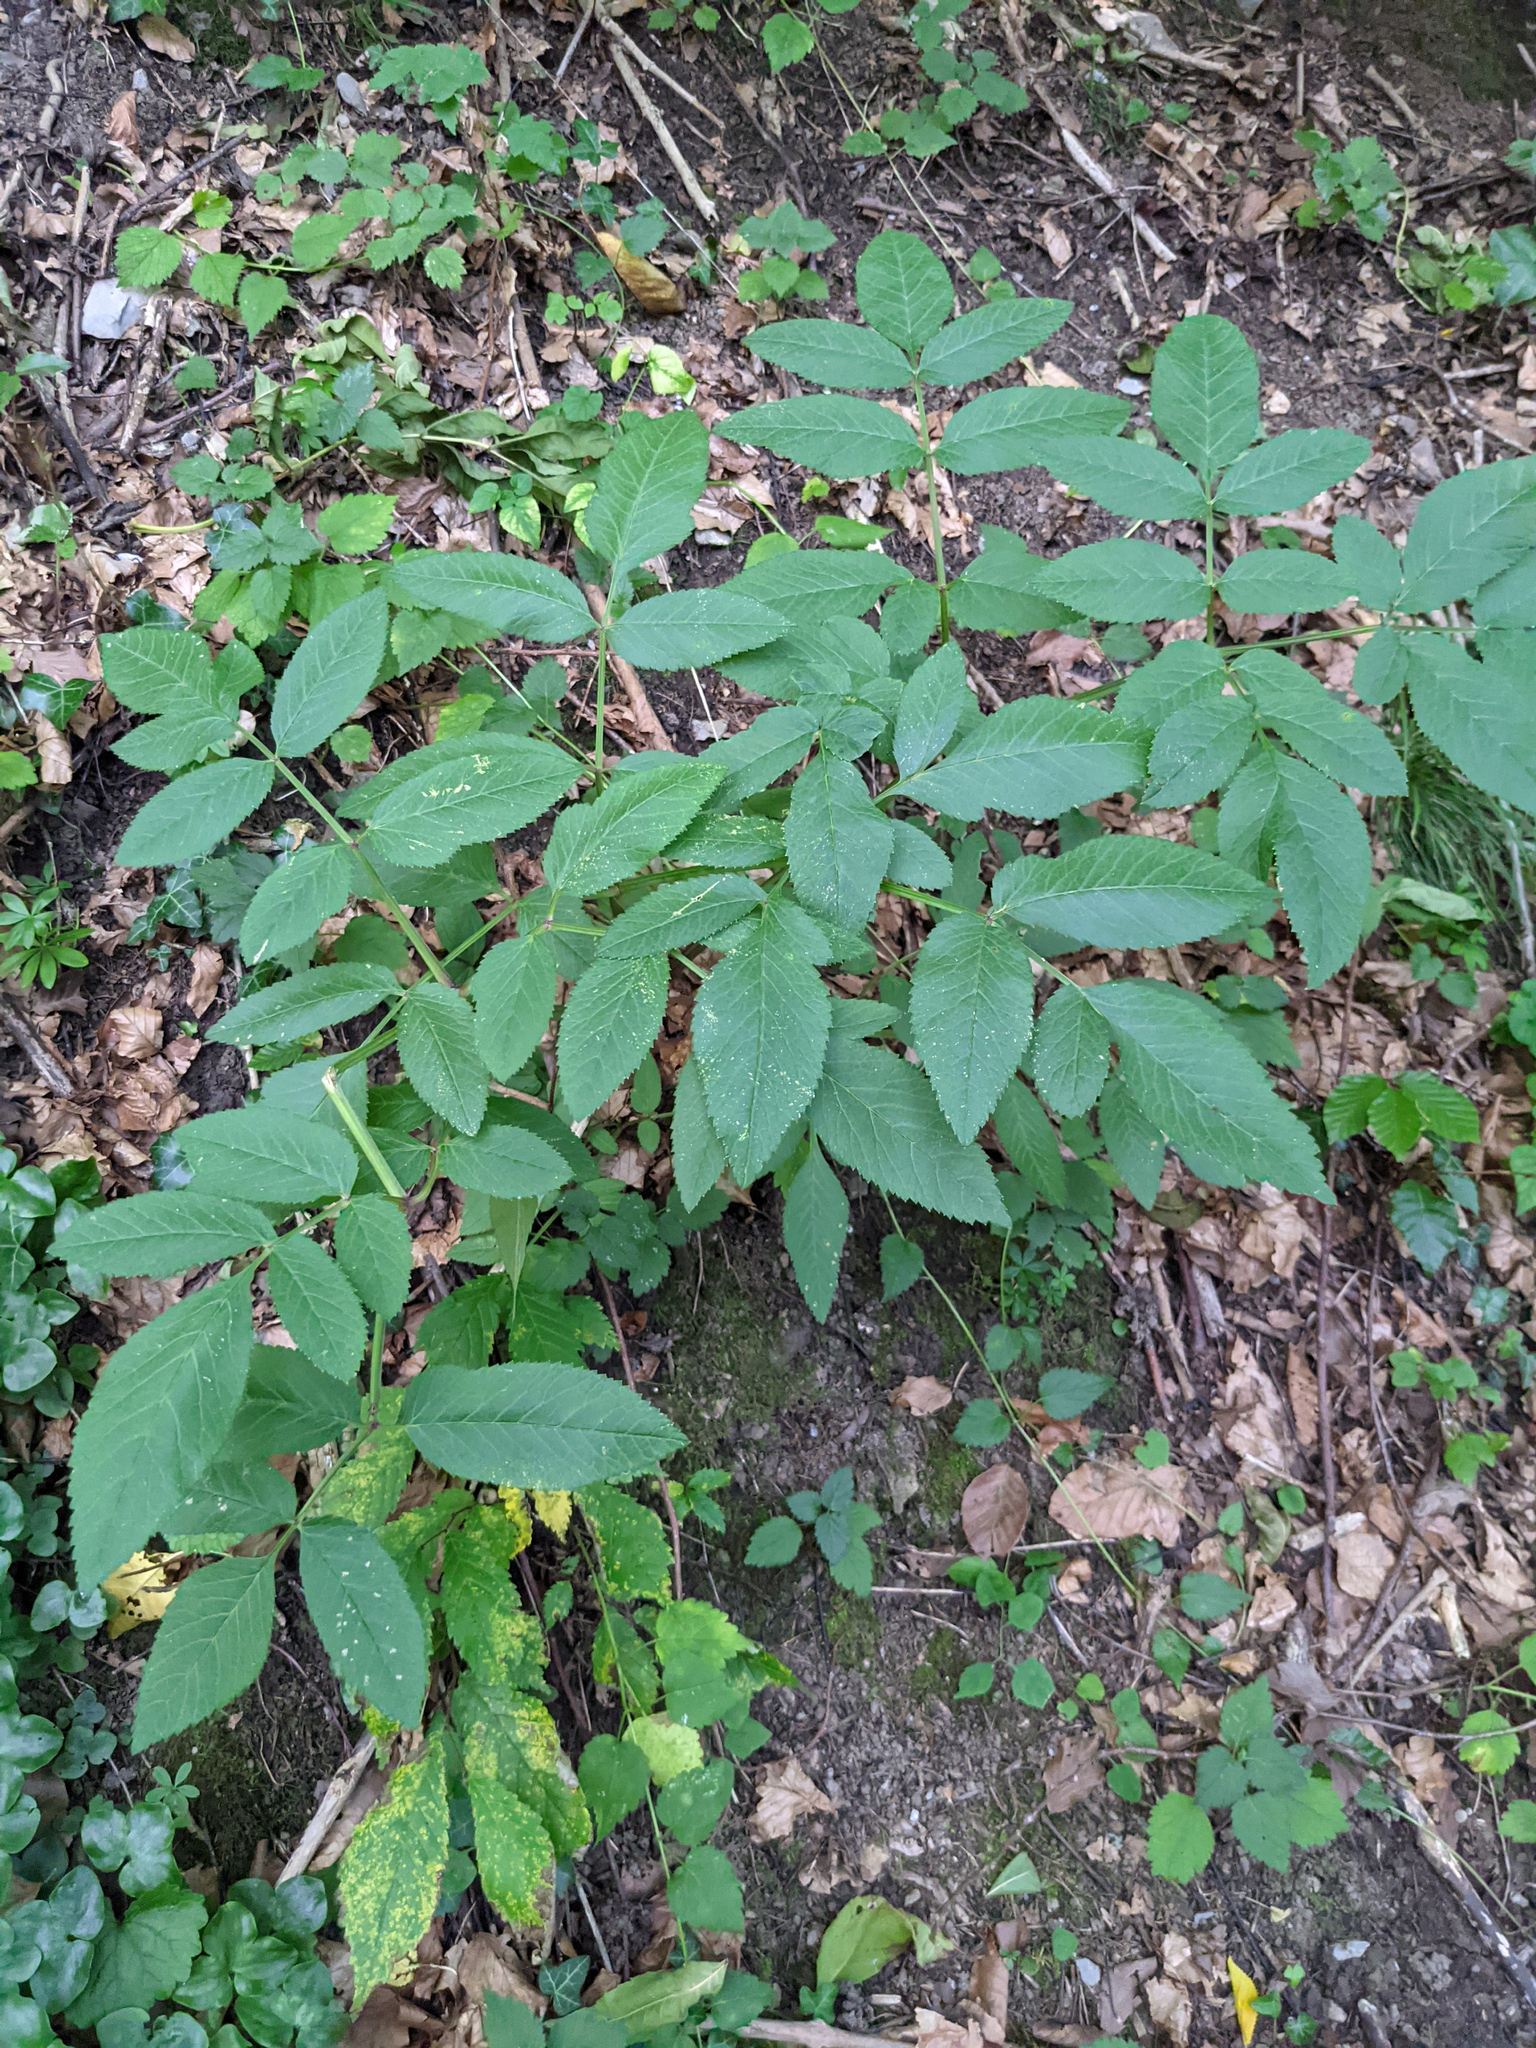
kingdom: Plantae
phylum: Tracheophyta
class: Magnoliopsida
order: Apiales
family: Apiaceae
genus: Aegopodium
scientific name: Aegopodium podagraria
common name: Ground-elder
